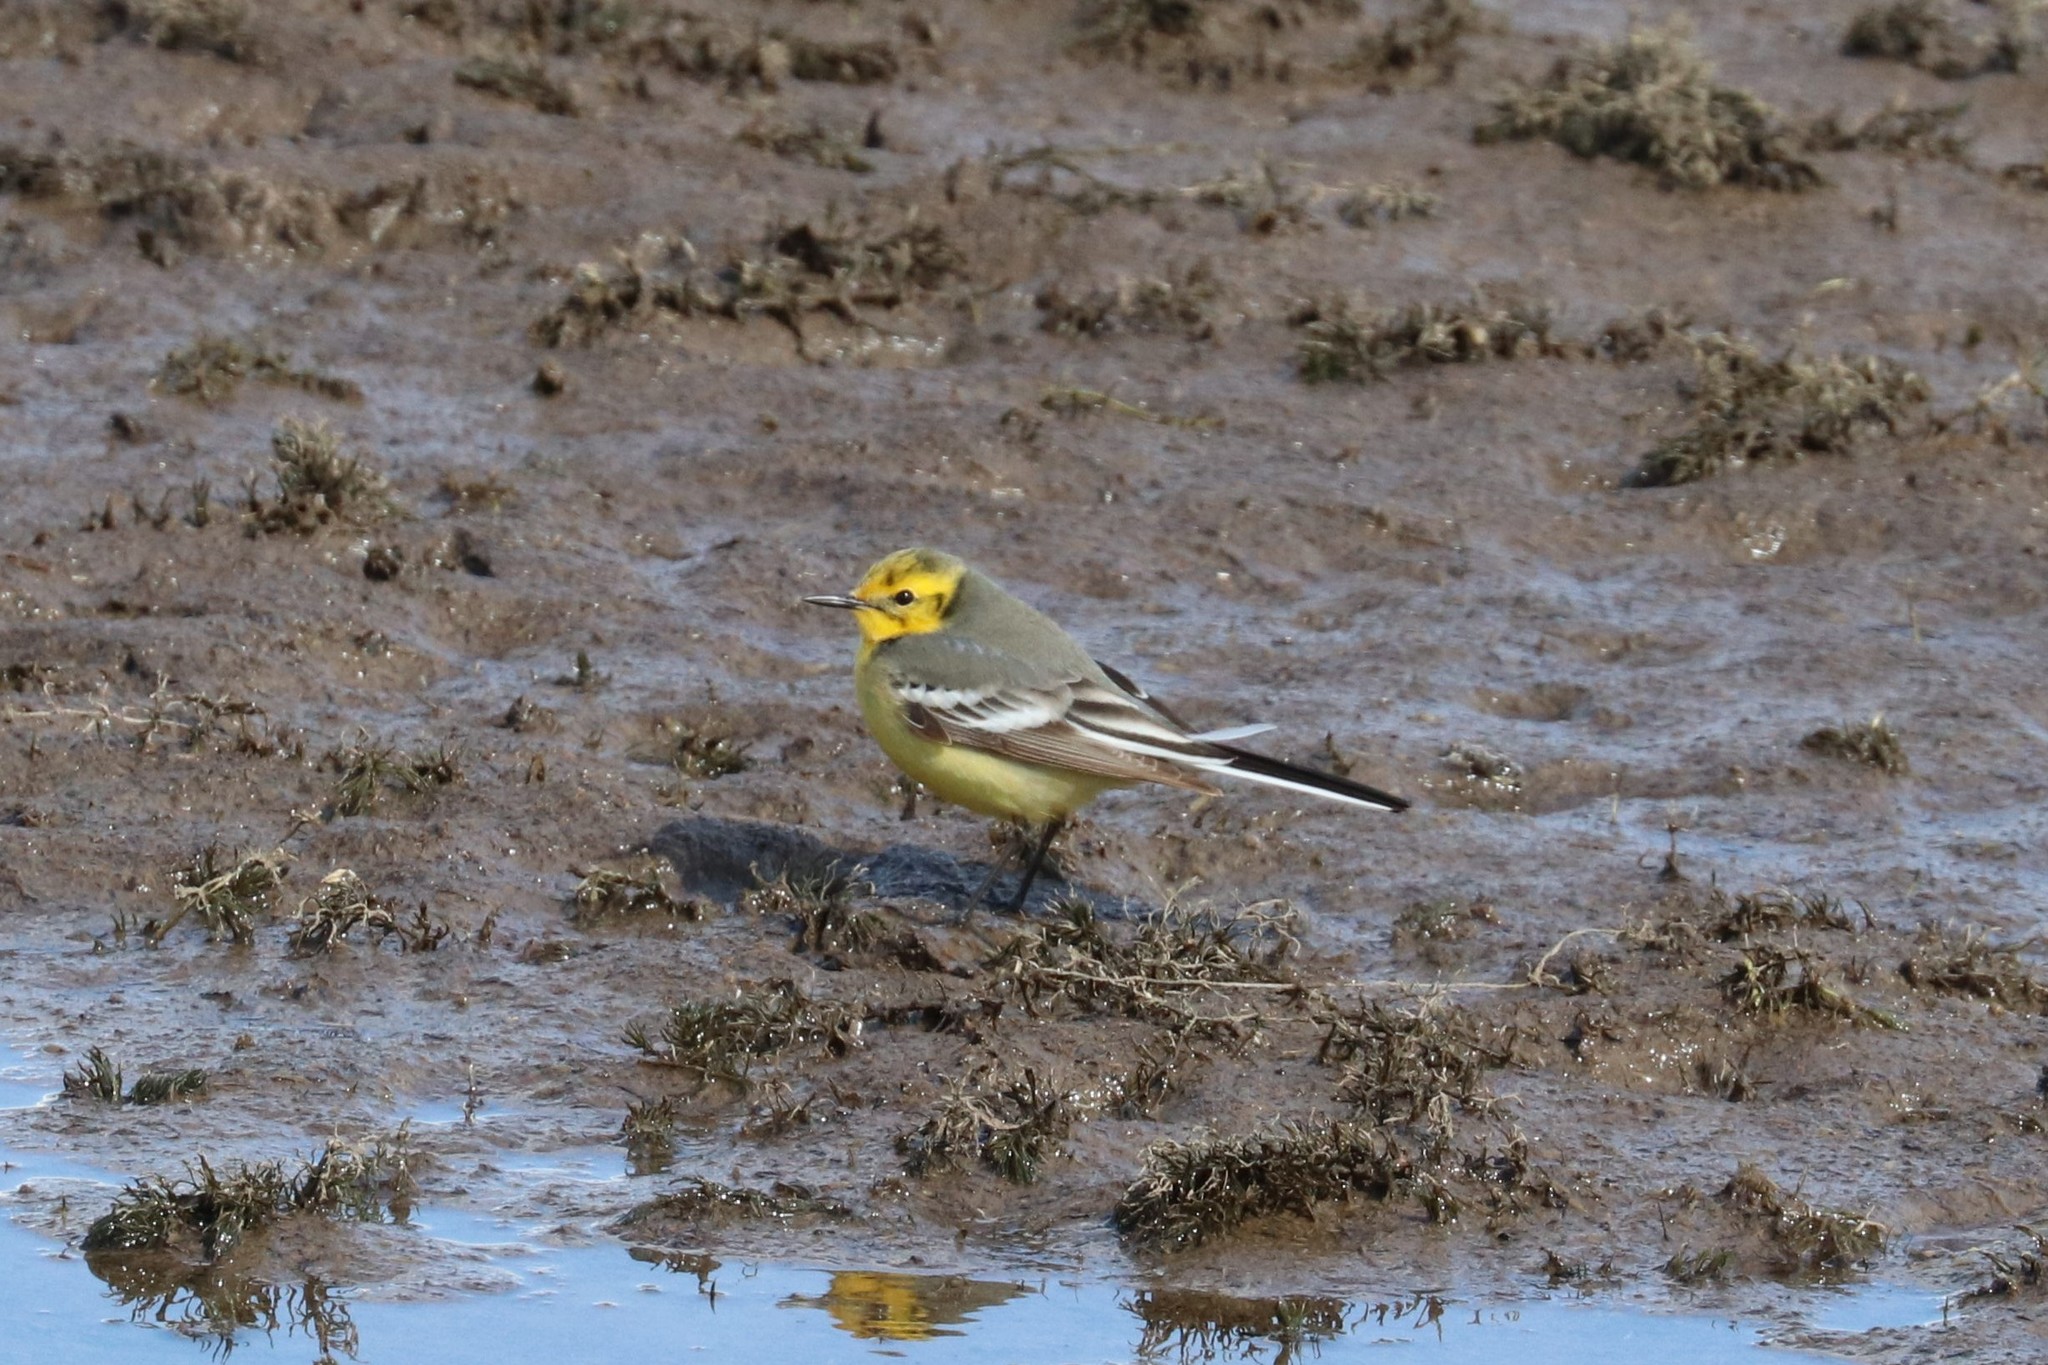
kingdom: Animalia
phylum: Chordata
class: Aves
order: Passeriformes
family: Motacillidae
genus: Motacilla
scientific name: Motacilla citreola
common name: Citrine wagtail
